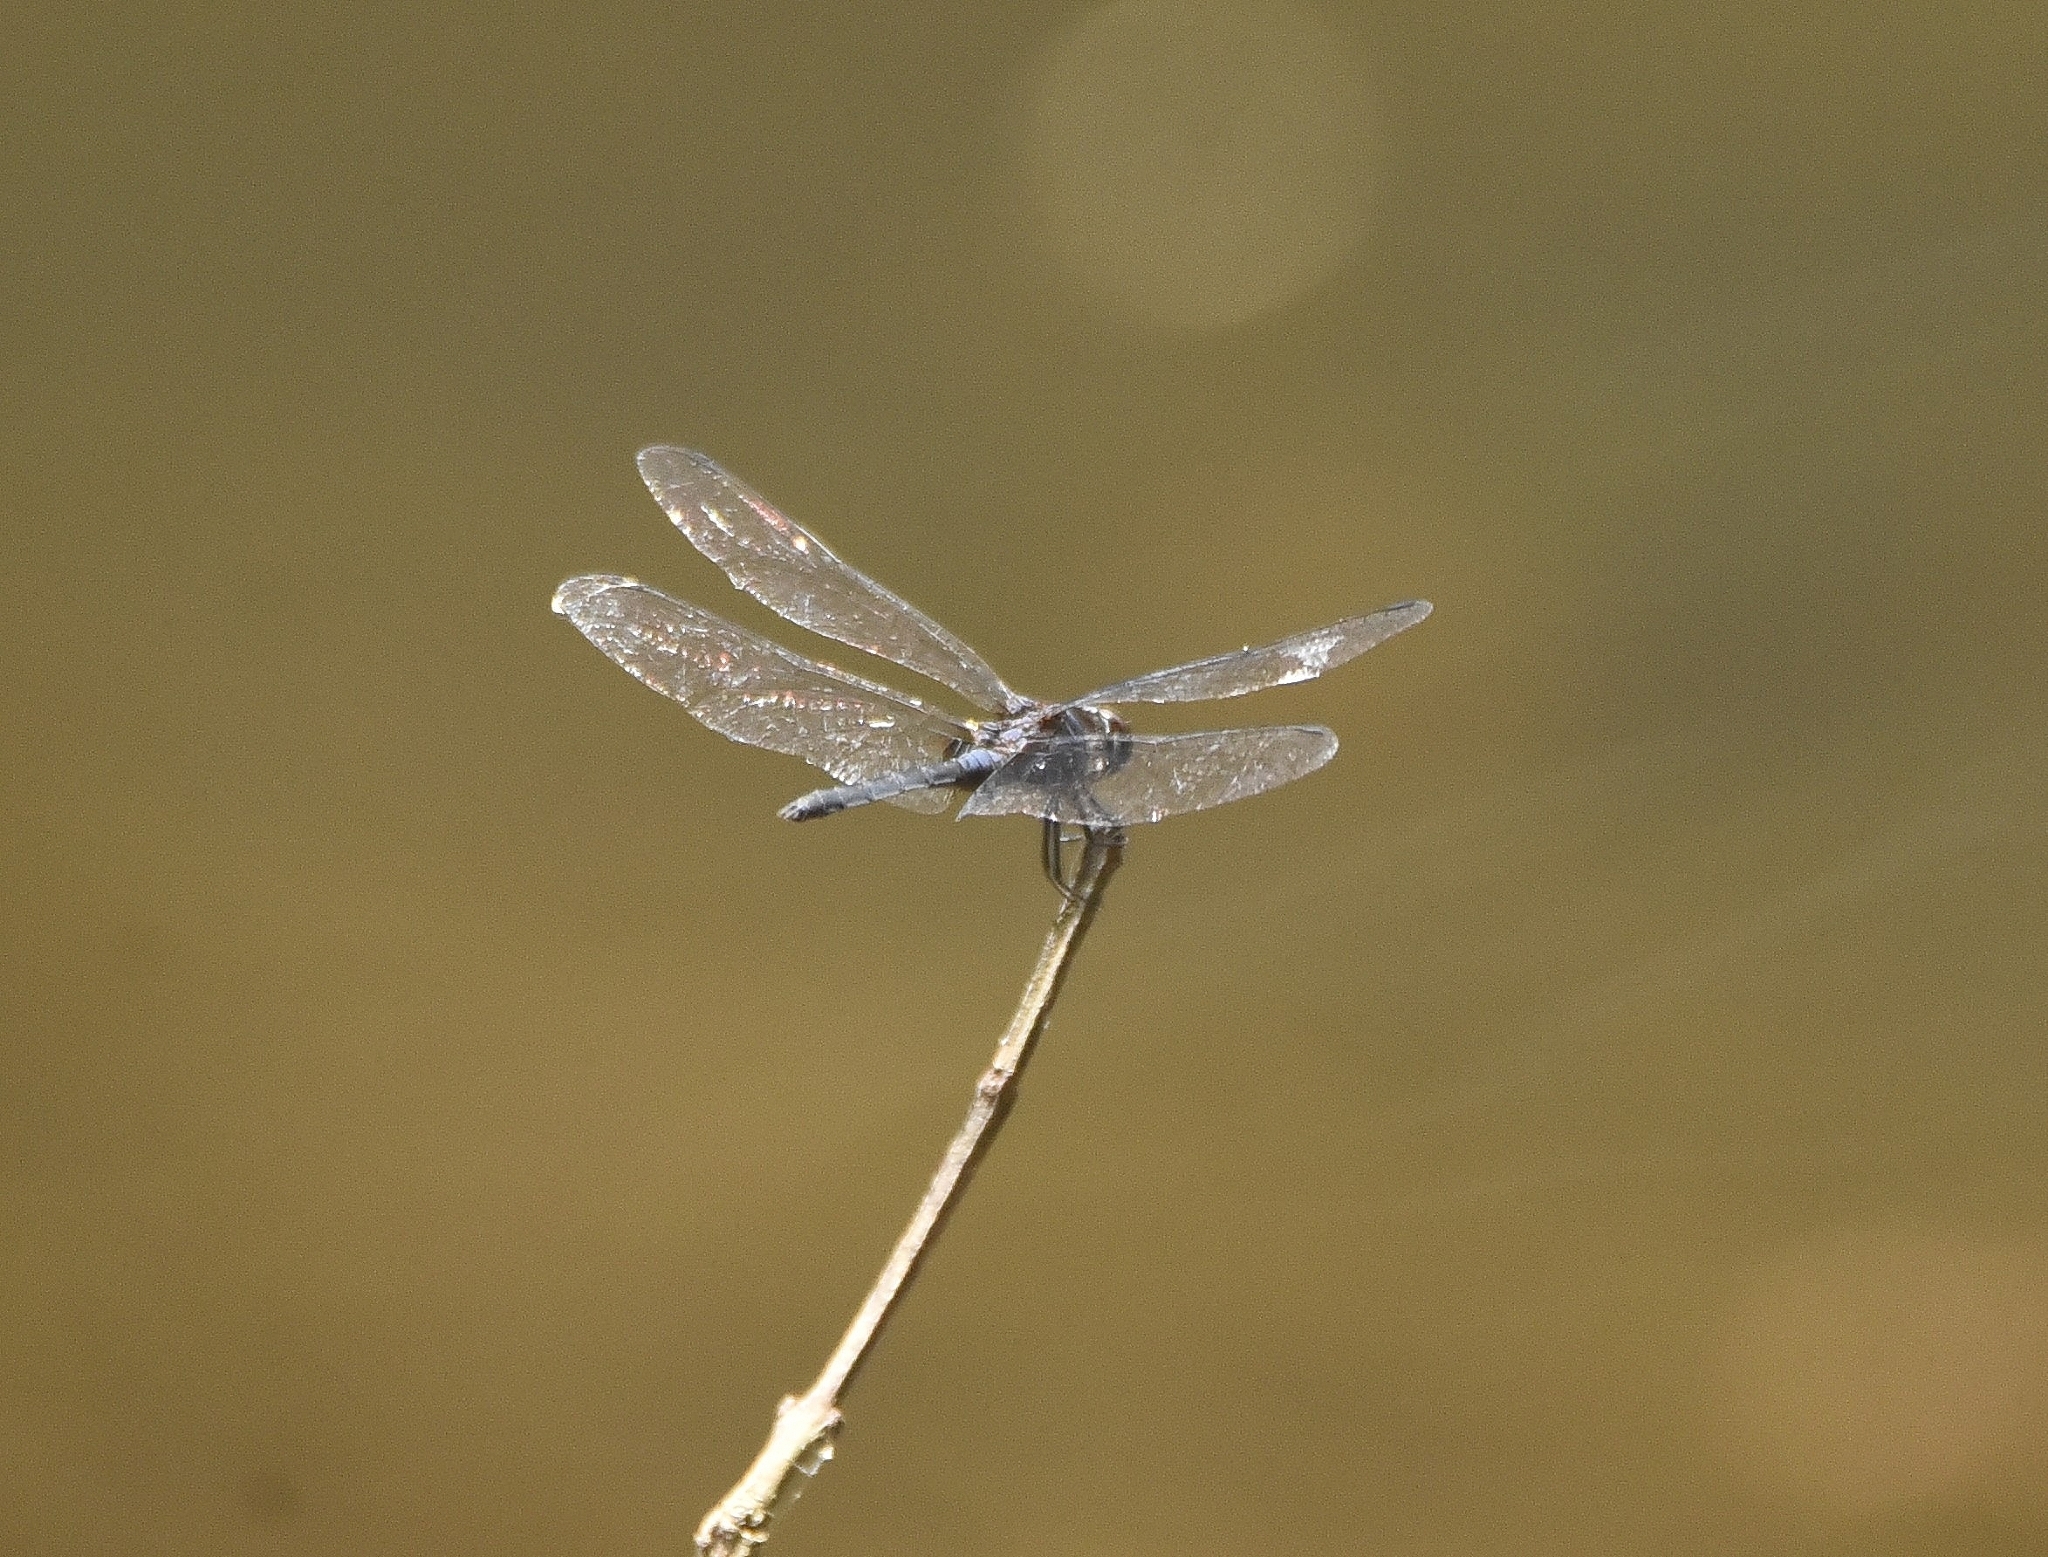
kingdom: Animalia
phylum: Arthropoda
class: Insecta
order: Odonata
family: Libellulidae
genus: Trithemis
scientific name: Trithemis festiva
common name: Indigo dropwing
